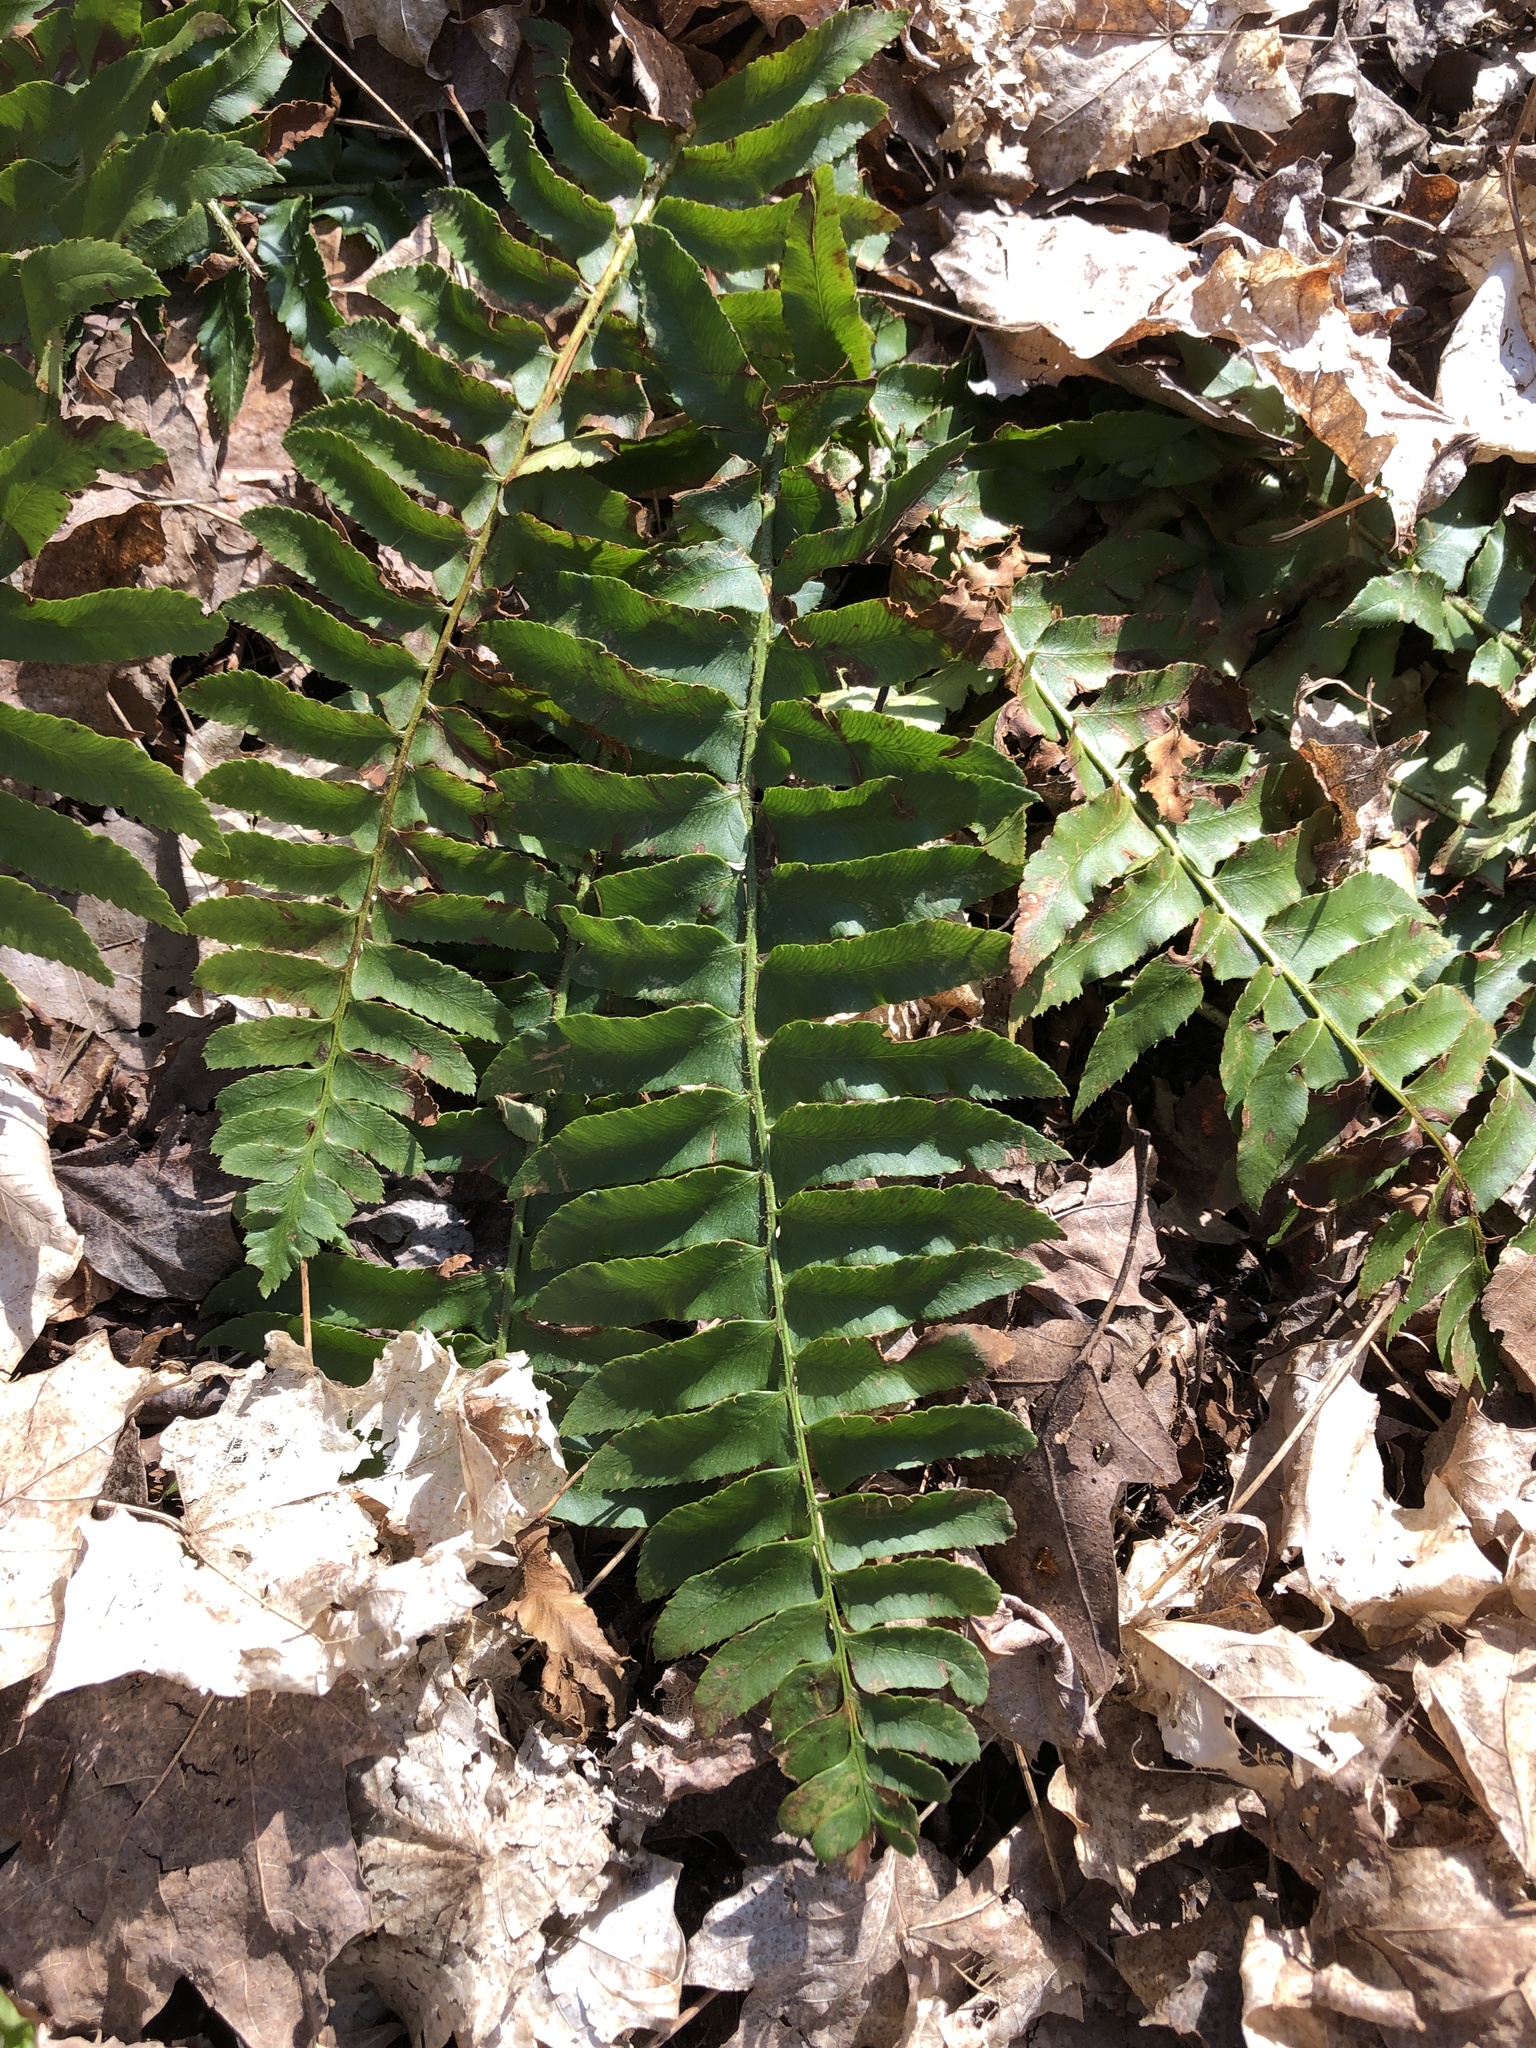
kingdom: Plantae
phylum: Tracheophyta
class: Polypodiopsida
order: Polypodiales
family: Dryopteridaceae
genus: Polystichum
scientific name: Polystichum acrostichoides
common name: Christmas fern
